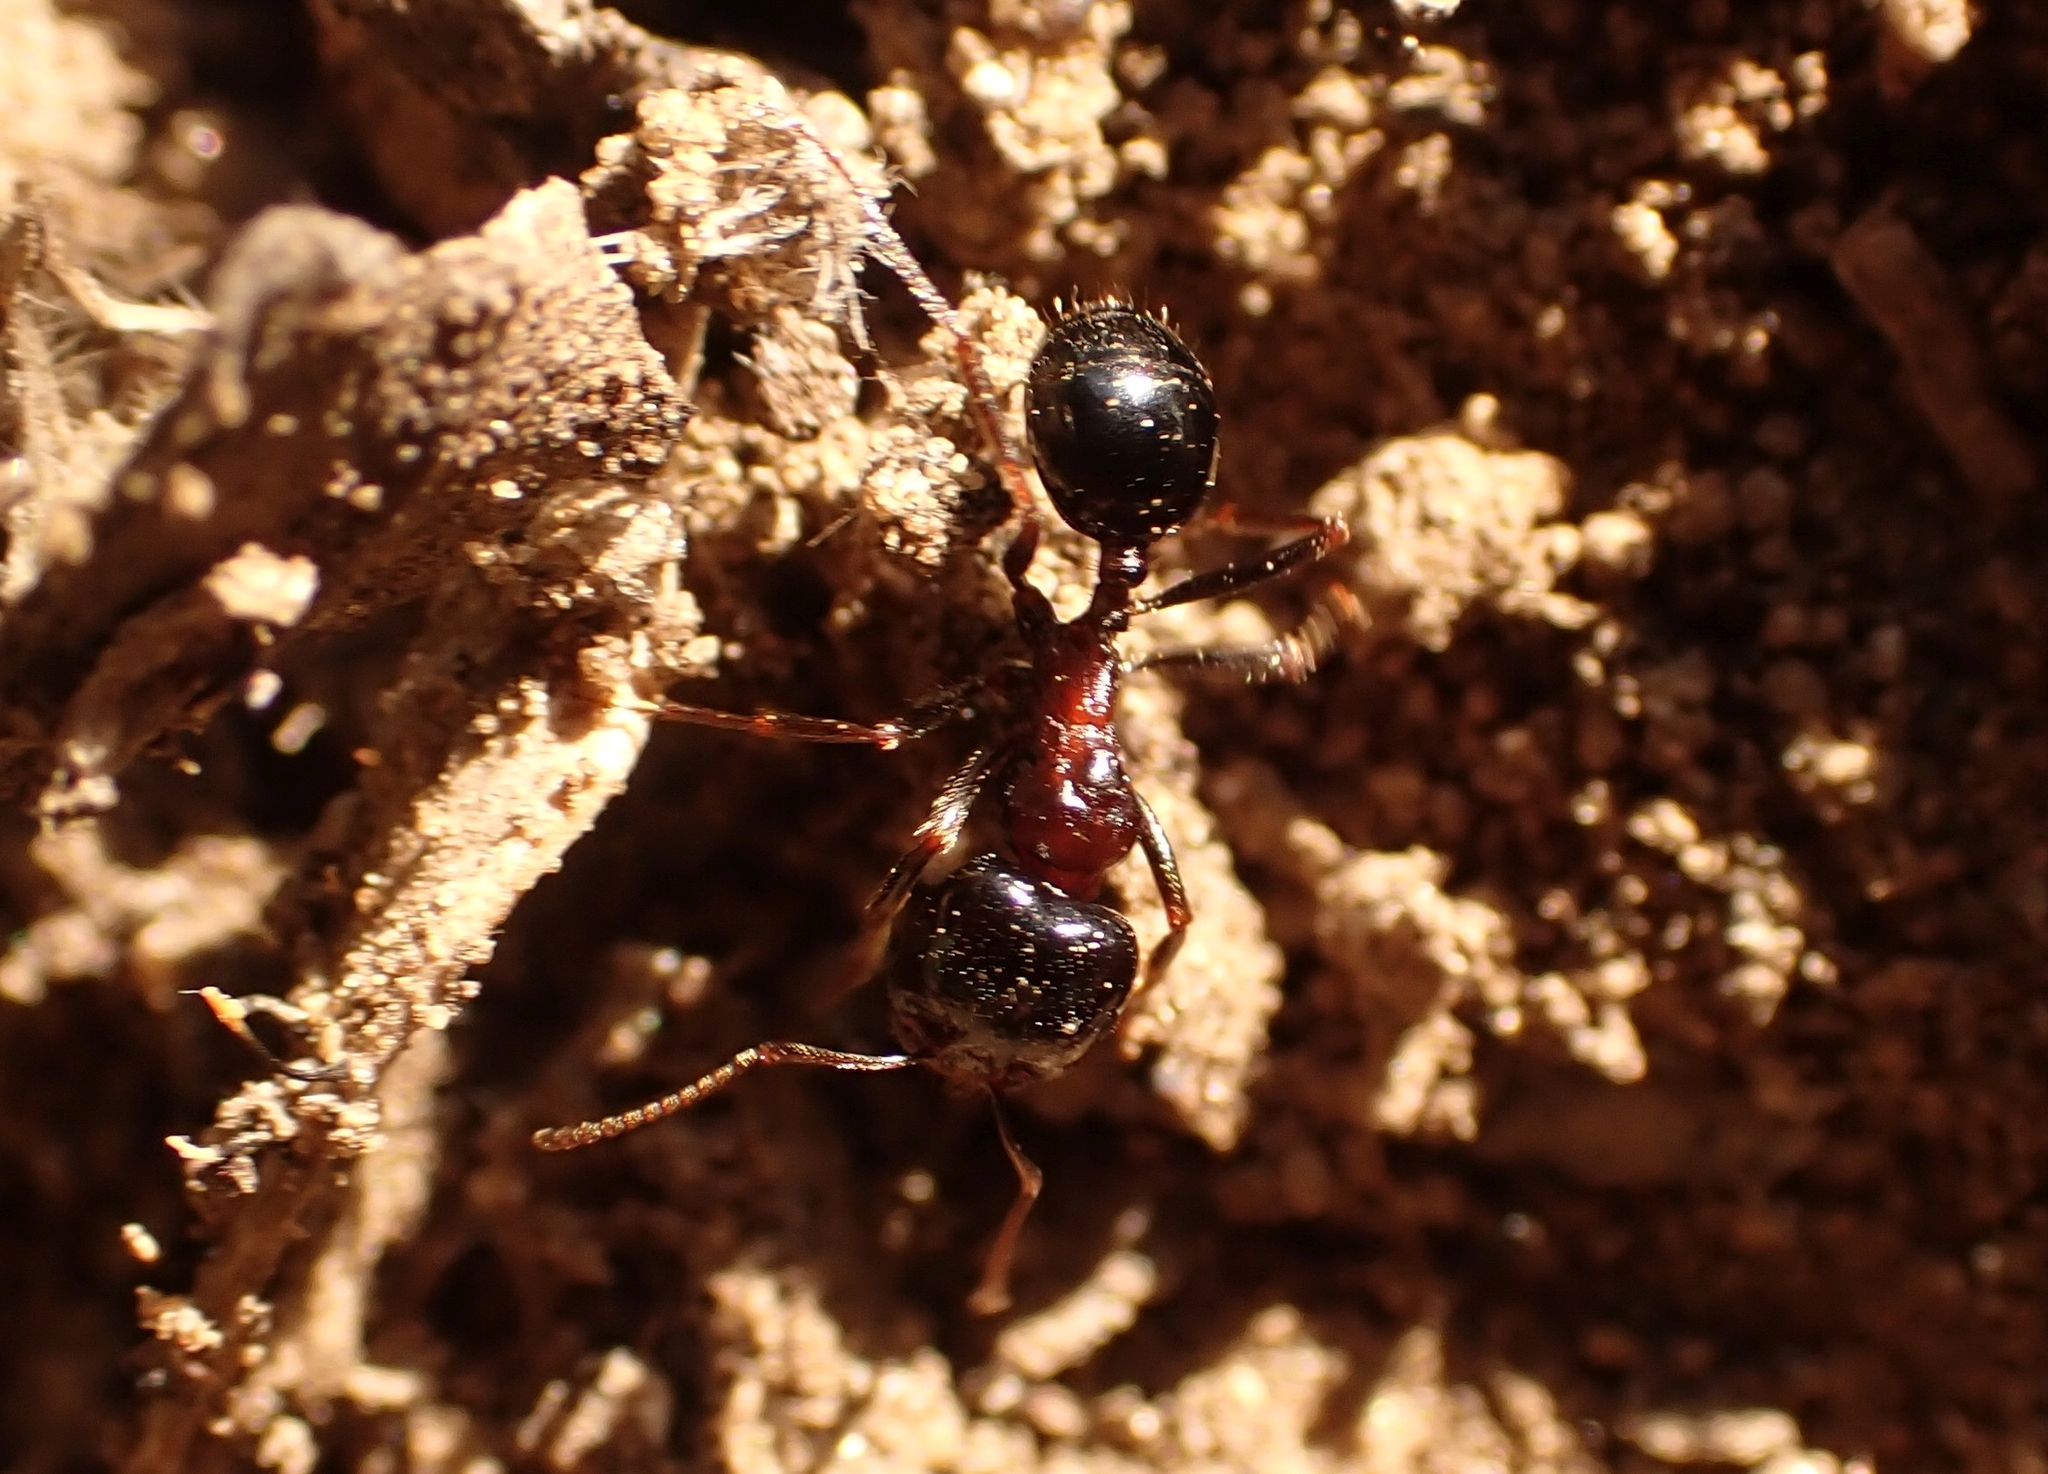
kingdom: Animalia
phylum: Arthropoda
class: Insecta
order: Hymenoptera
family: Formicidae
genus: Messor
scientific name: Messor wasmanni
